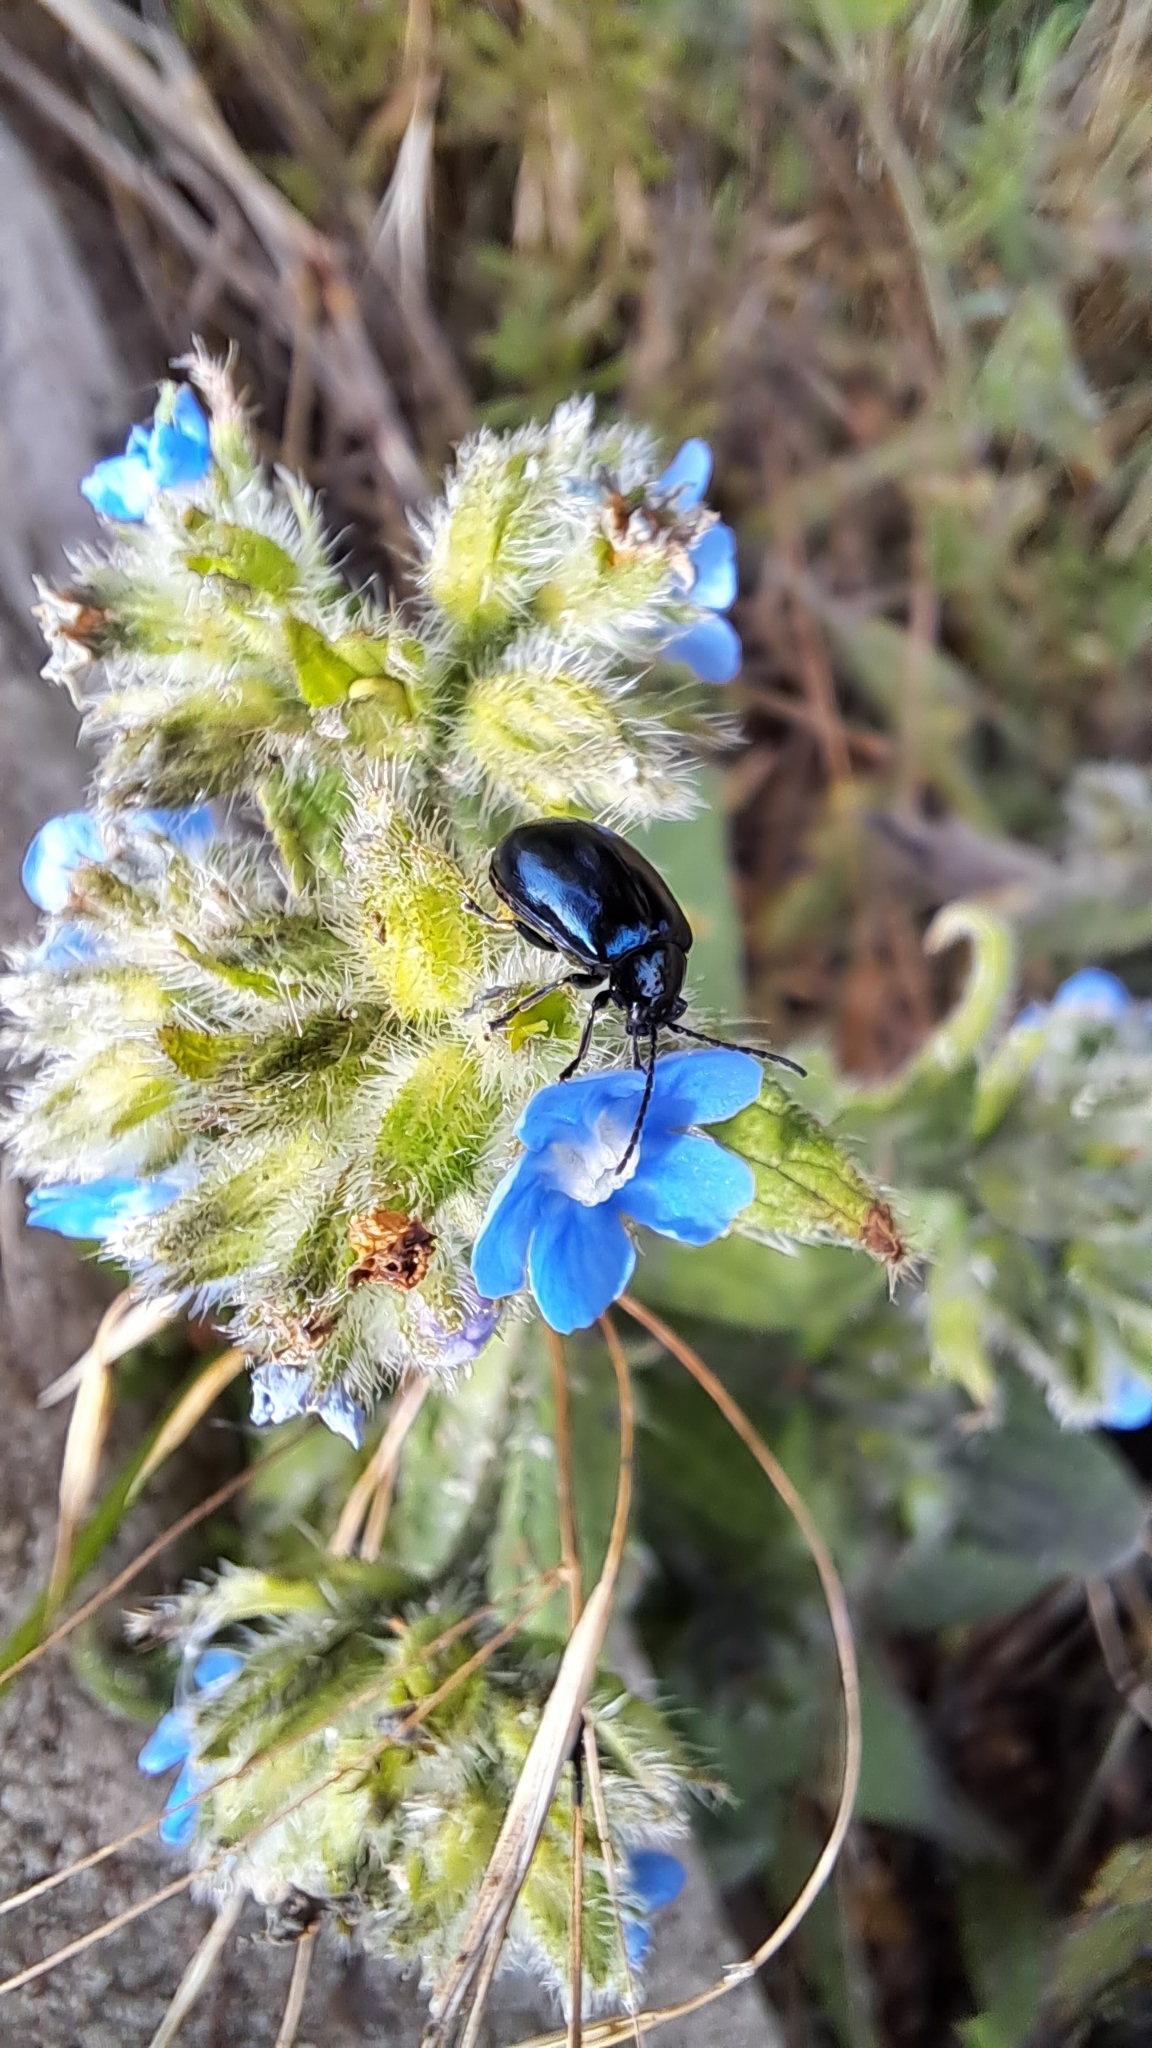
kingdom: Animalia
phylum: Arthropoda
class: Insecta
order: Coleoptera
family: Chrysomelidae
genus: Agelastica
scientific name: Agelastica alni
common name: Alder leaf beetle
